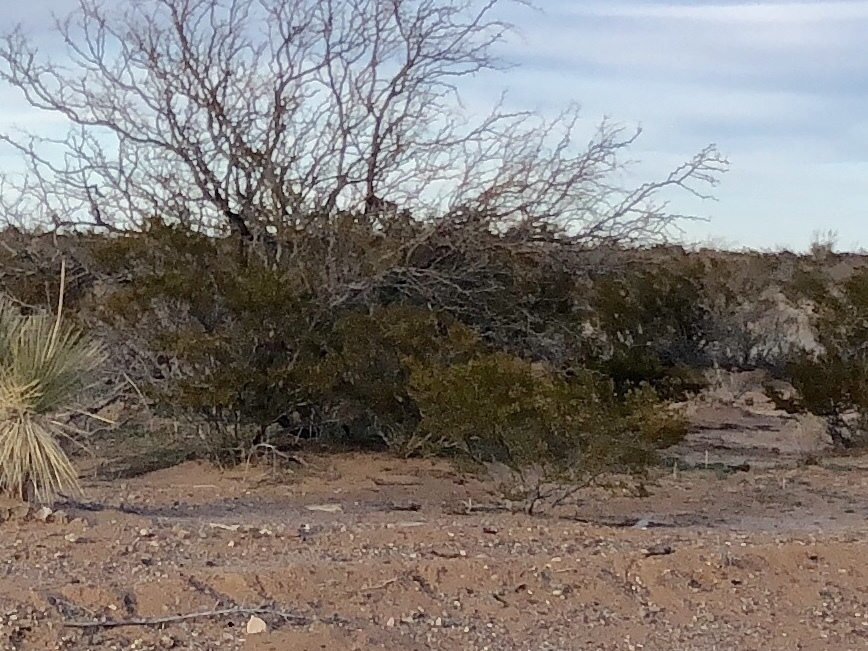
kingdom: Plantae
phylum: Tracheophyta
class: Magnoliopsida
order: Zygophyllales
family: Zygophyllaceae
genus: Larrea
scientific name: Larrea tridentata
